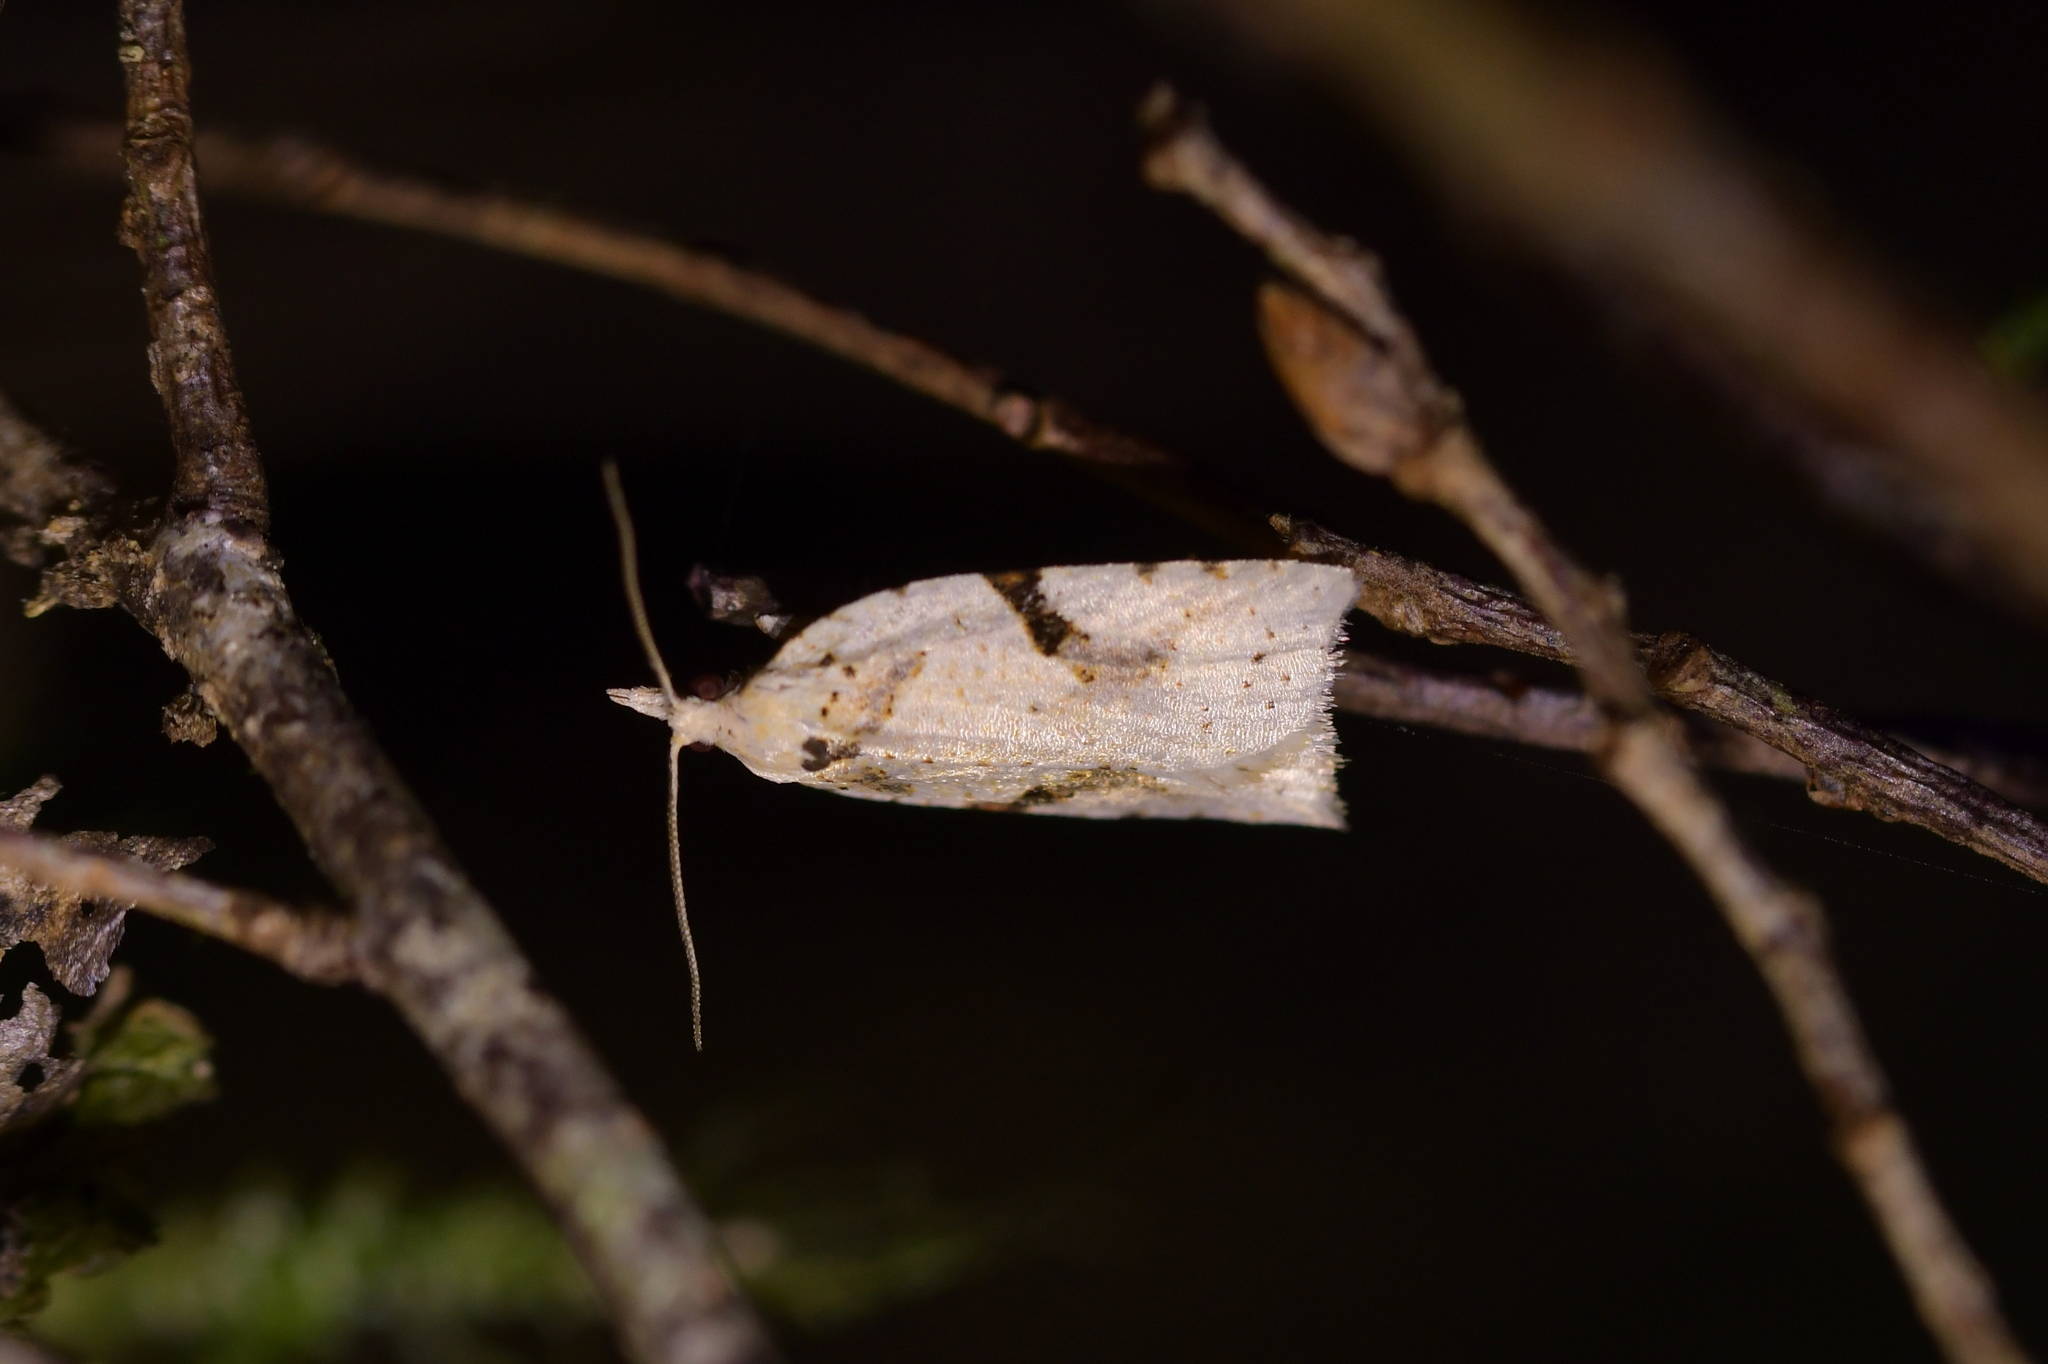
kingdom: Animalia
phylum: Arthropoda
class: Insecta
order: Lepidoptera
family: Tortricidae
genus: Leucotenes
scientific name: Leucotenes coprosmae
